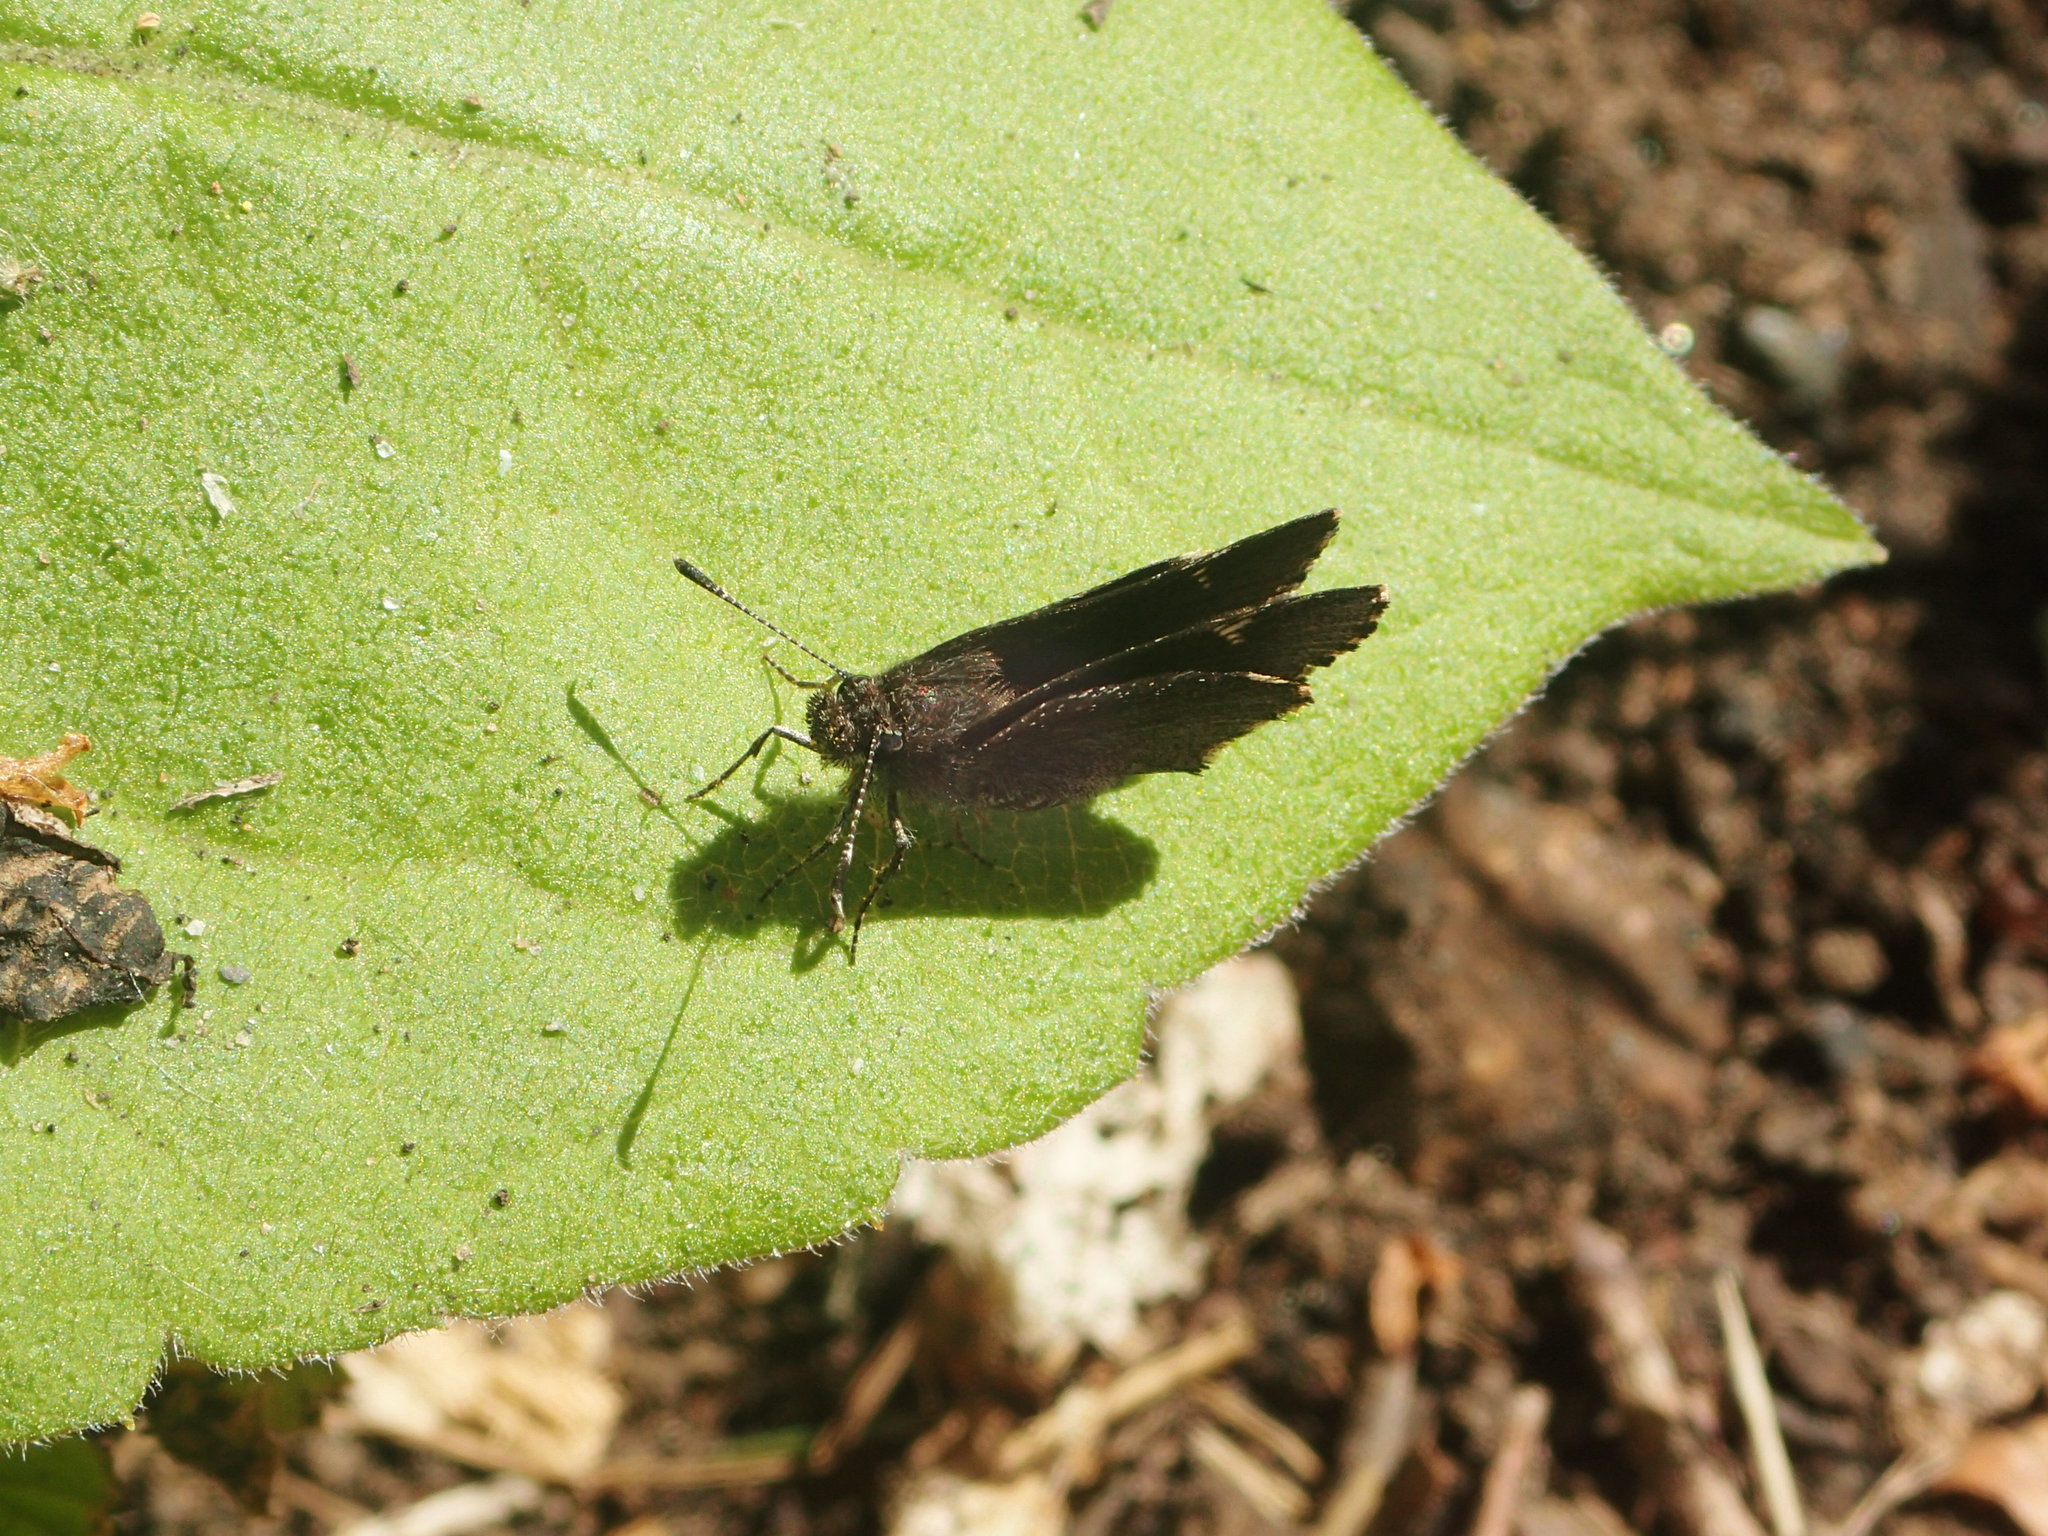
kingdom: Animalia
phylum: Arthropoda
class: Insecta
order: Lepidoptera
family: Hesperiidae
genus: Mastor
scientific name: Mastor vialis
